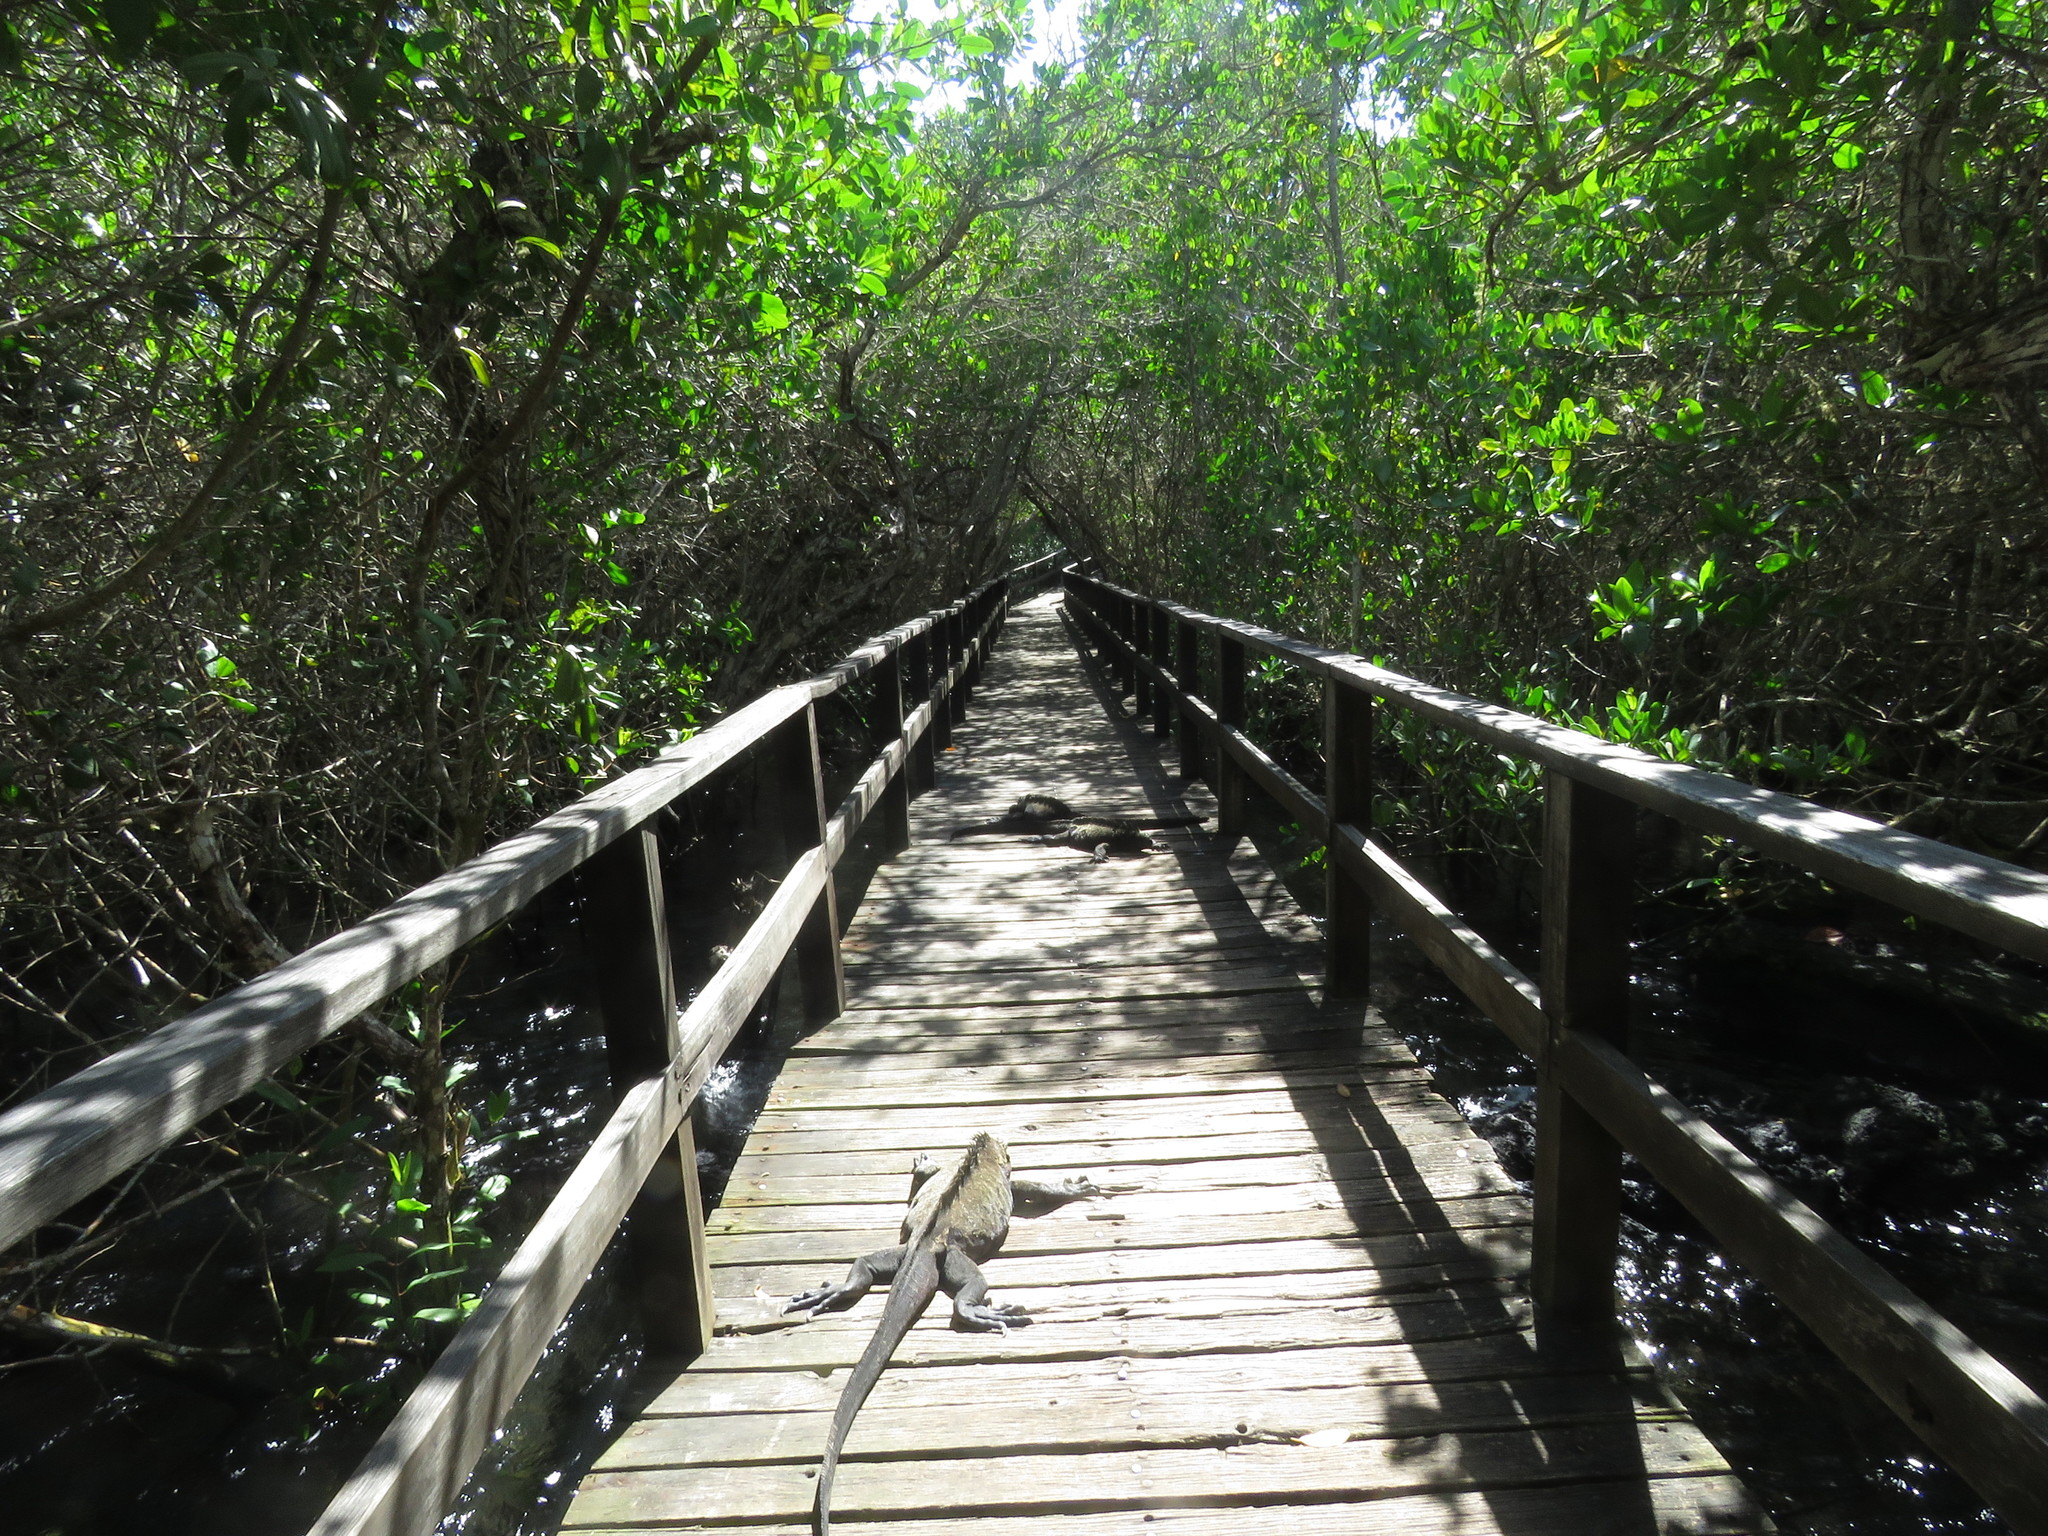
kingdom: Animalia
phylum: Chordata
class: Squamata
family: Iguanidae
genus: Amblyrhynchus
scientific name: Amblyrhynchus cristatus
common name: Marine iguana
